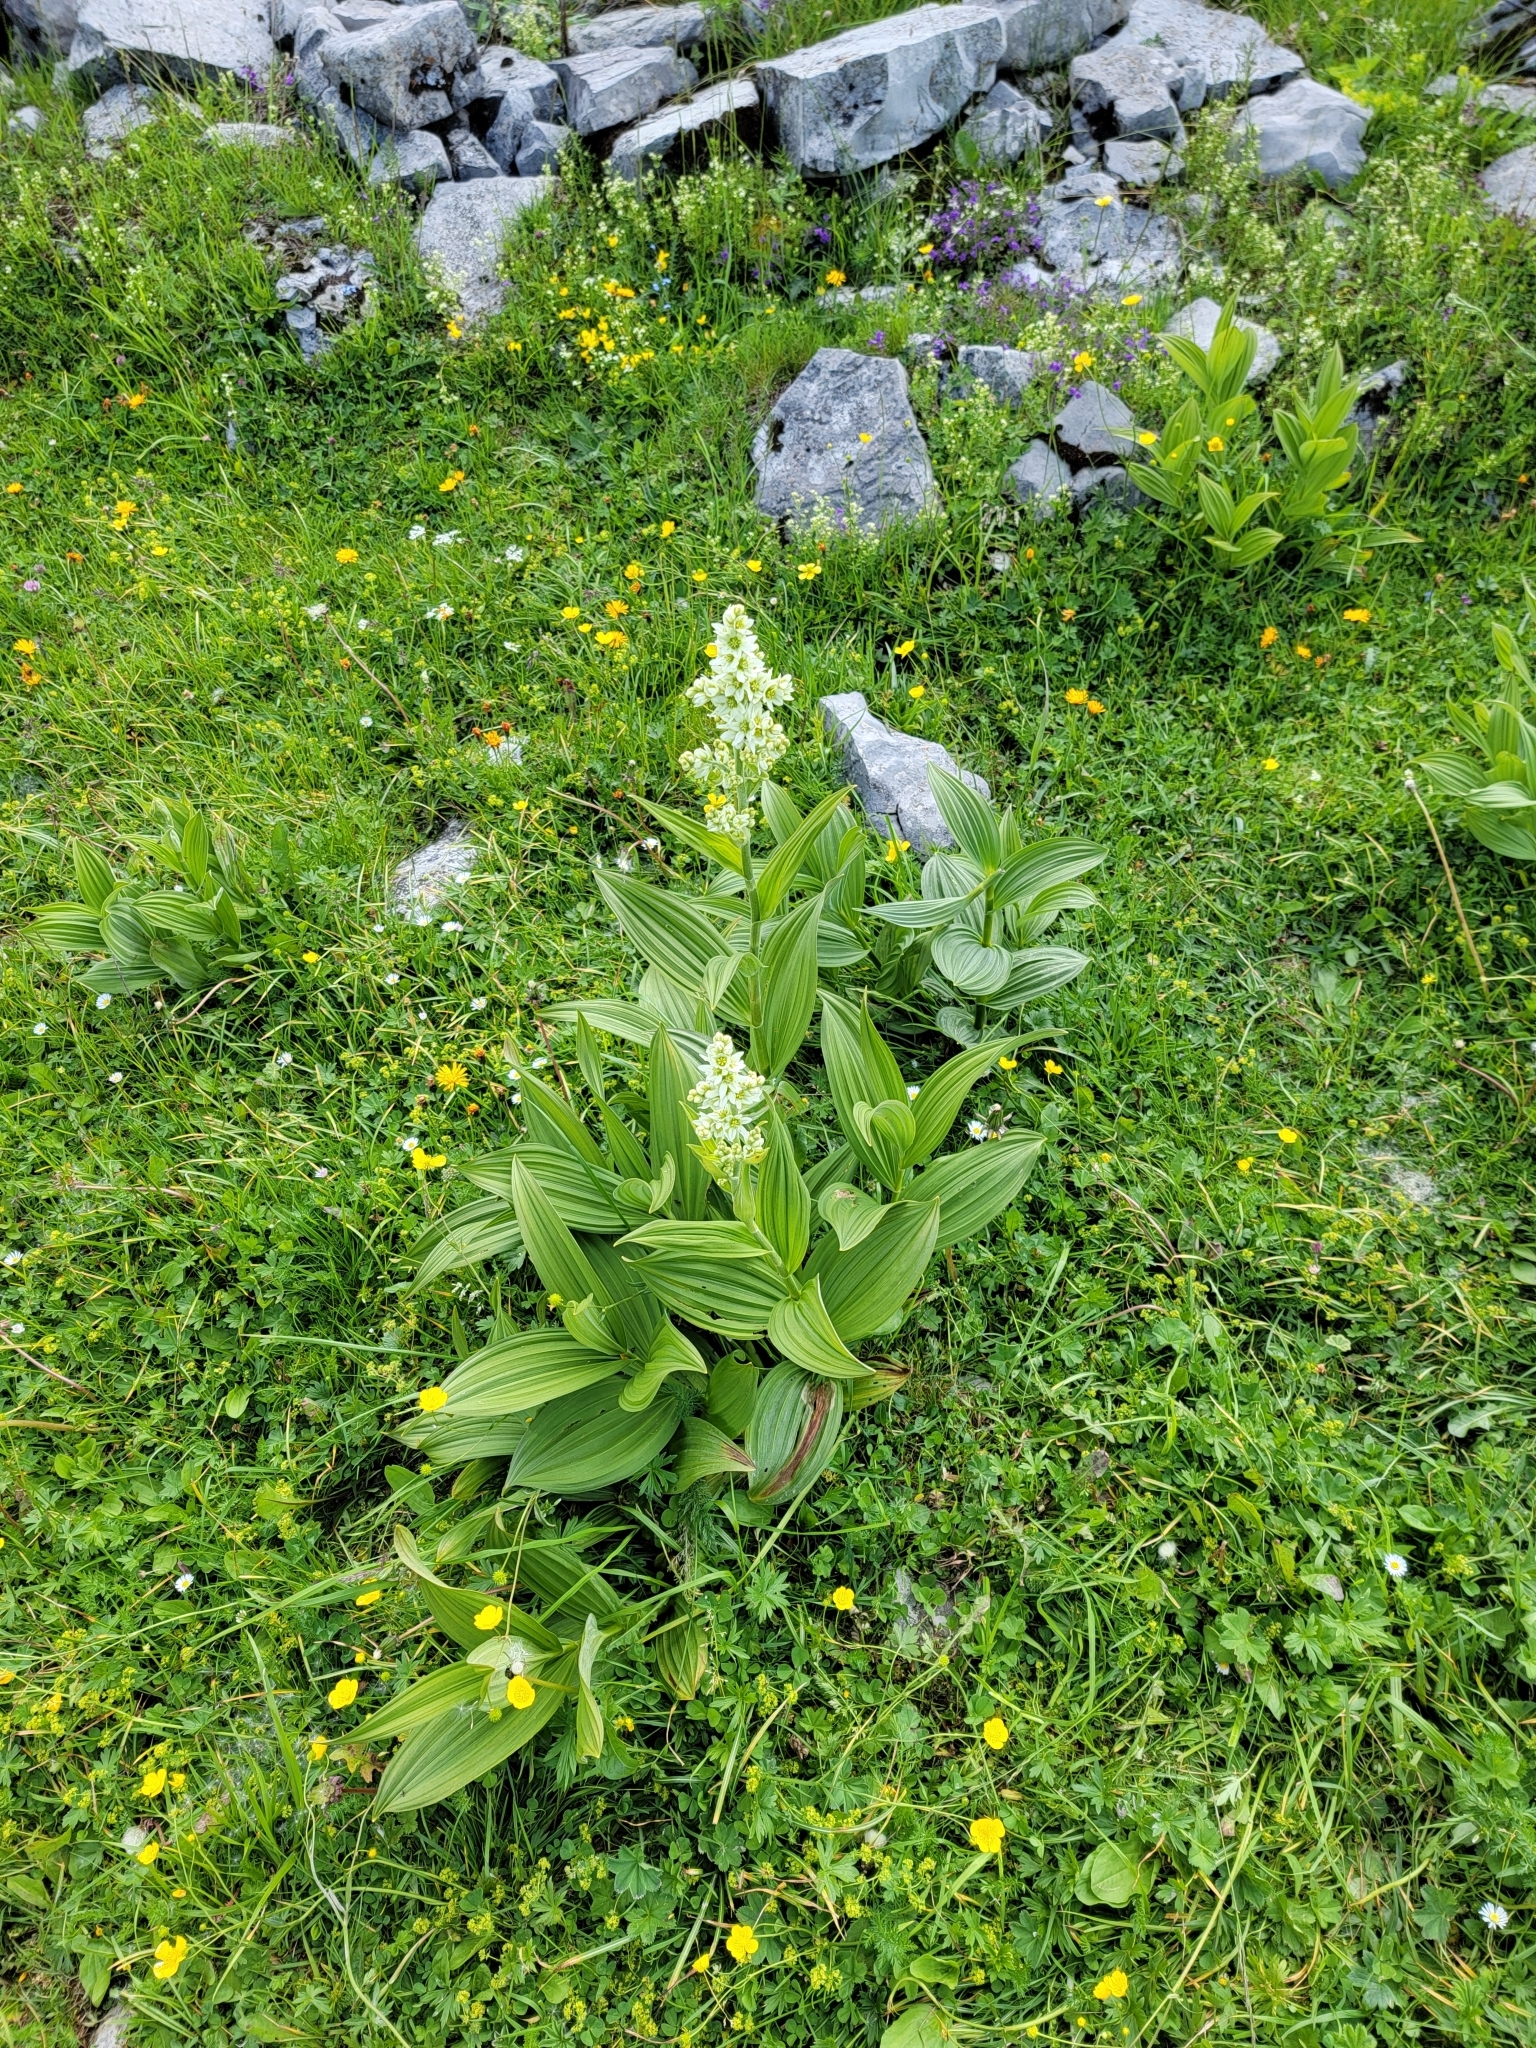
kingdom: Plantae
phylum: Tracheophyta
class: Liliopsida
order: Liliales
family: Melanthiaceae
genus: Veratrum
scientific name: Veratrum album
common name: White veratrum
